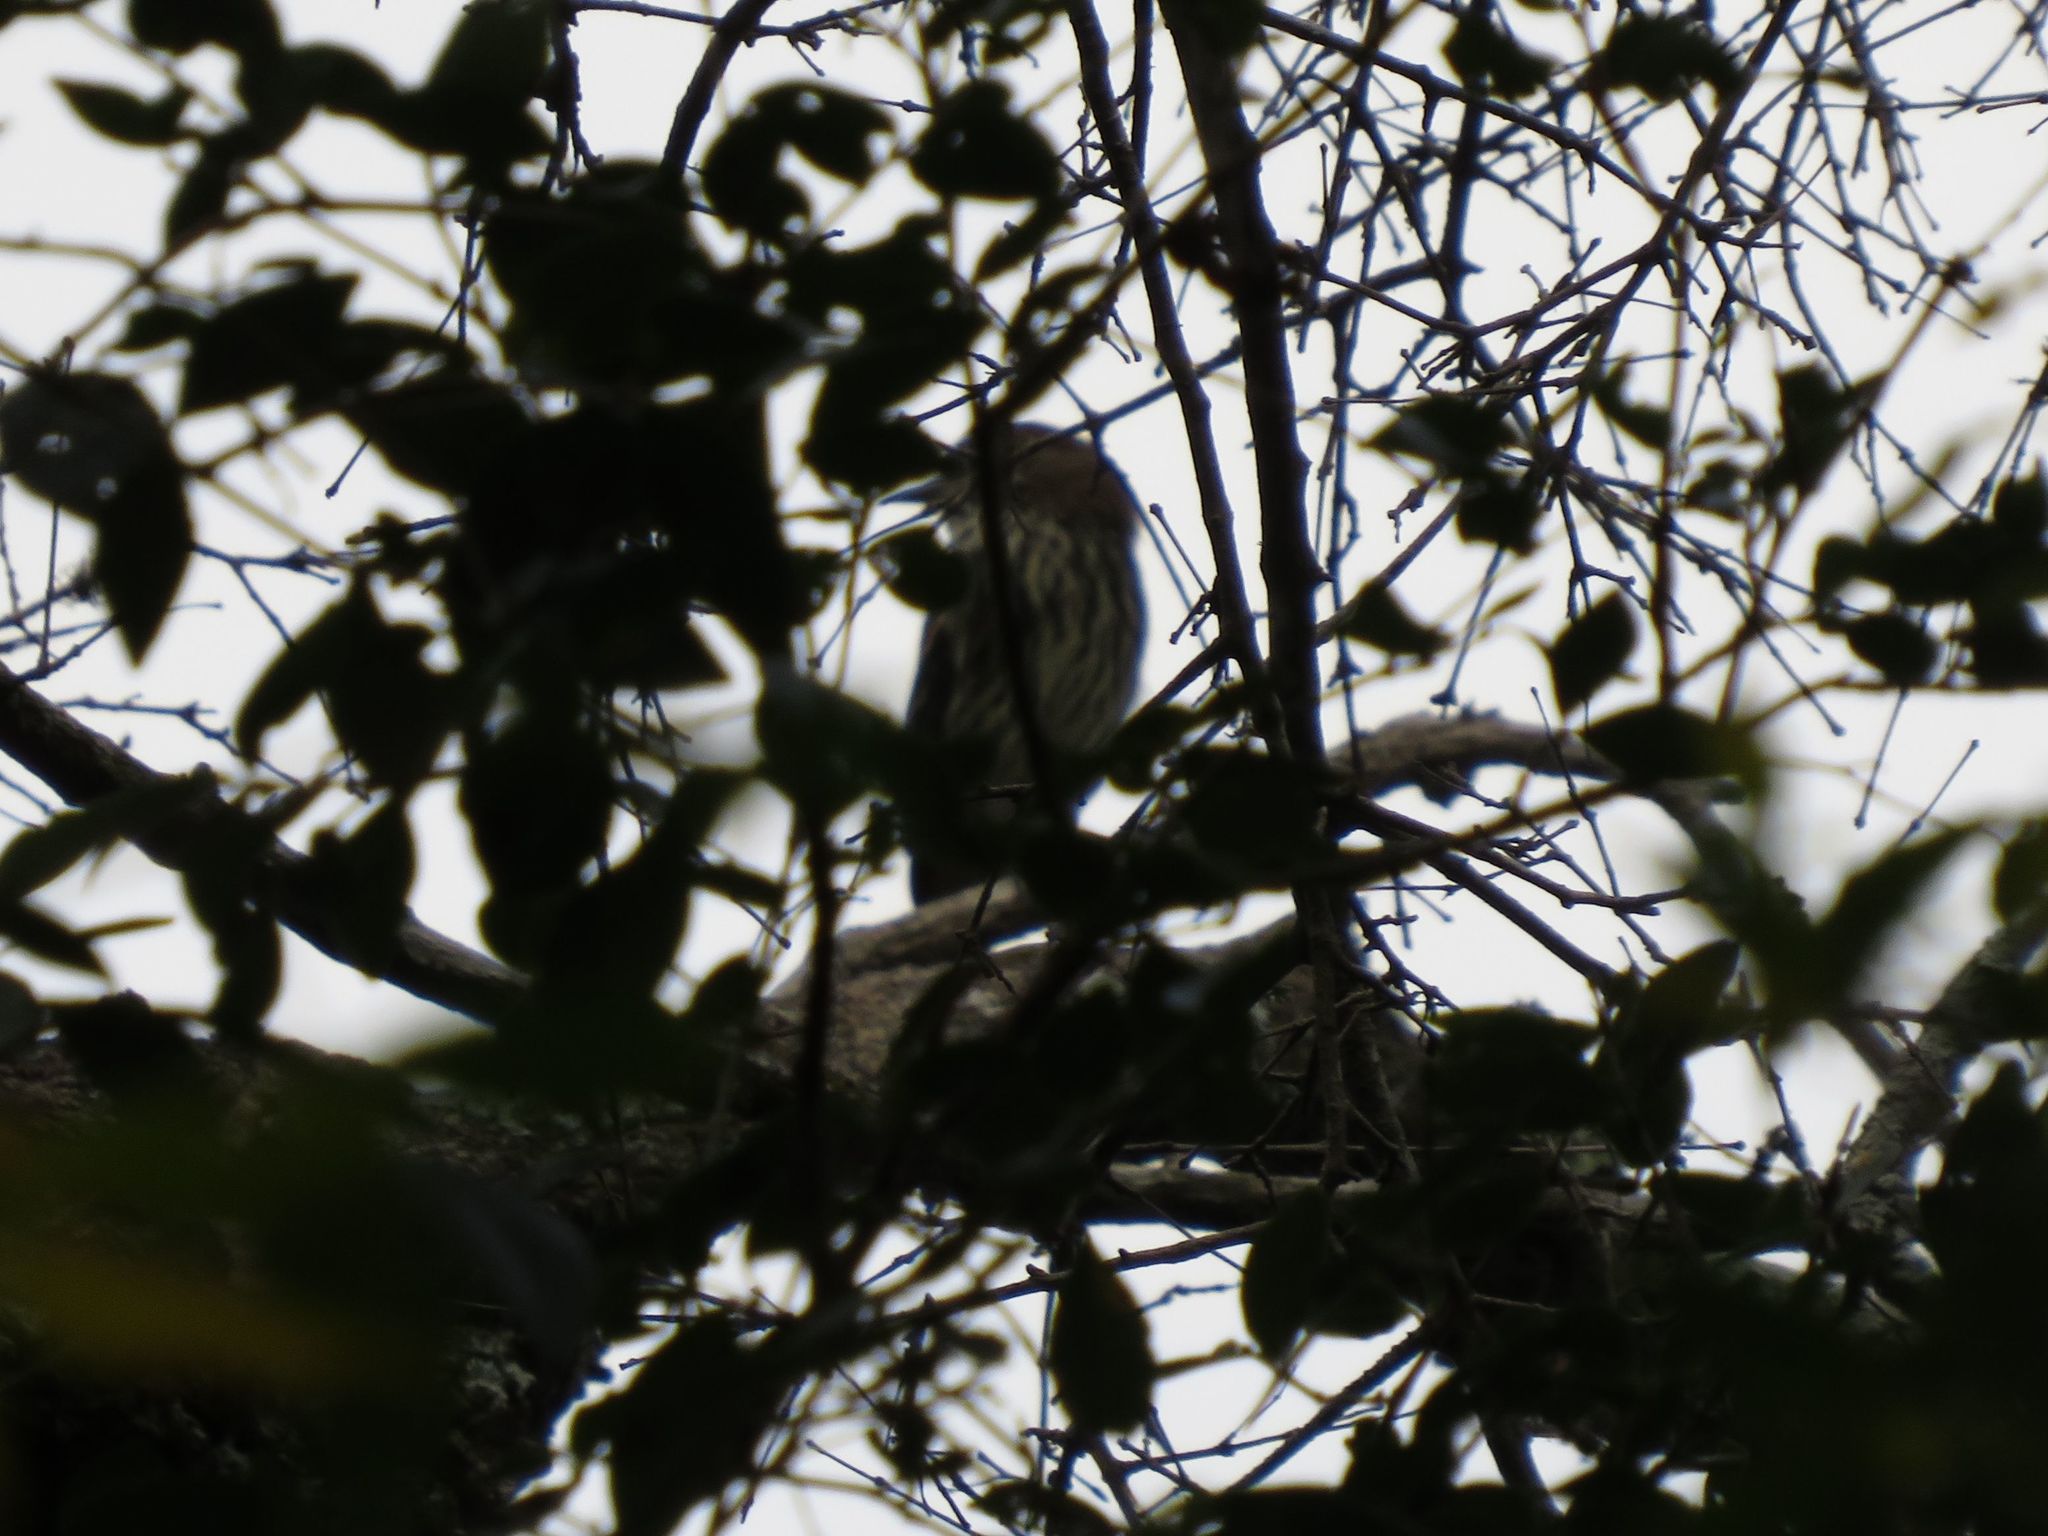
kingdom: Animalia
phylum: Chordata
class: Aves
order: Passeriformes
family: Tyrannidae
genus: Knipolegus
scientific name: Knipolegus cyanirostris
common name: Blue-billed black tyrant
